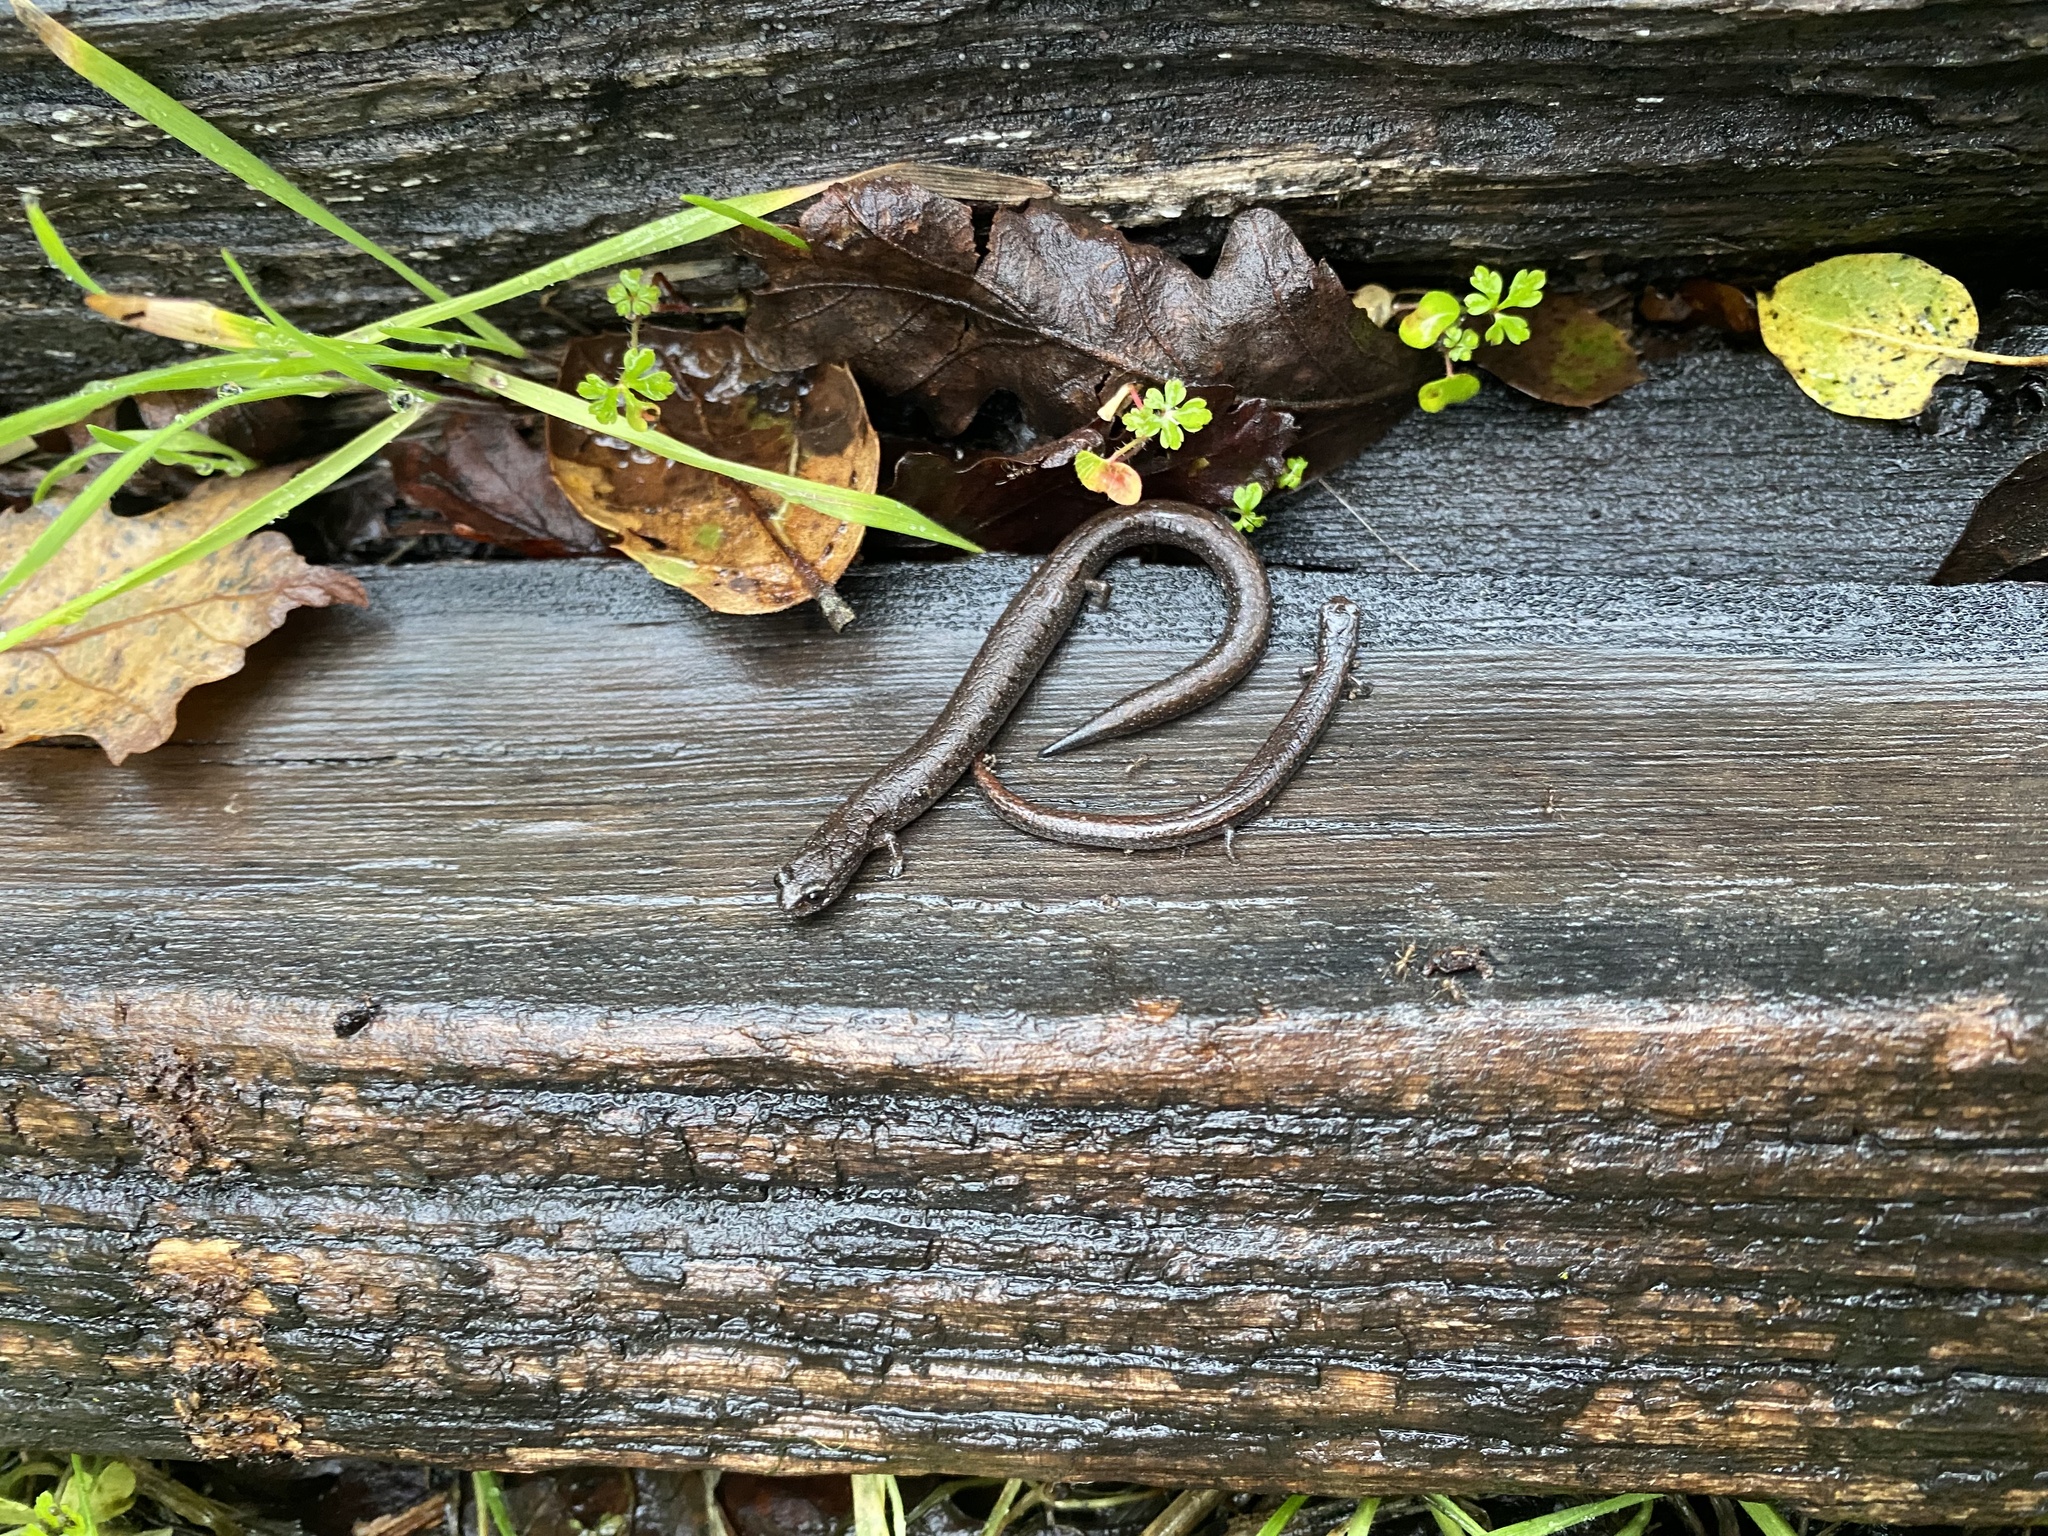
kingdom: Animalia
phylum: Chordata
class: Amphibia
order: Caudata
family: Plethodontidae
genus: Batrachoseps
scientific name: Batrachoseps attenuatus
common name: California slender salamander
